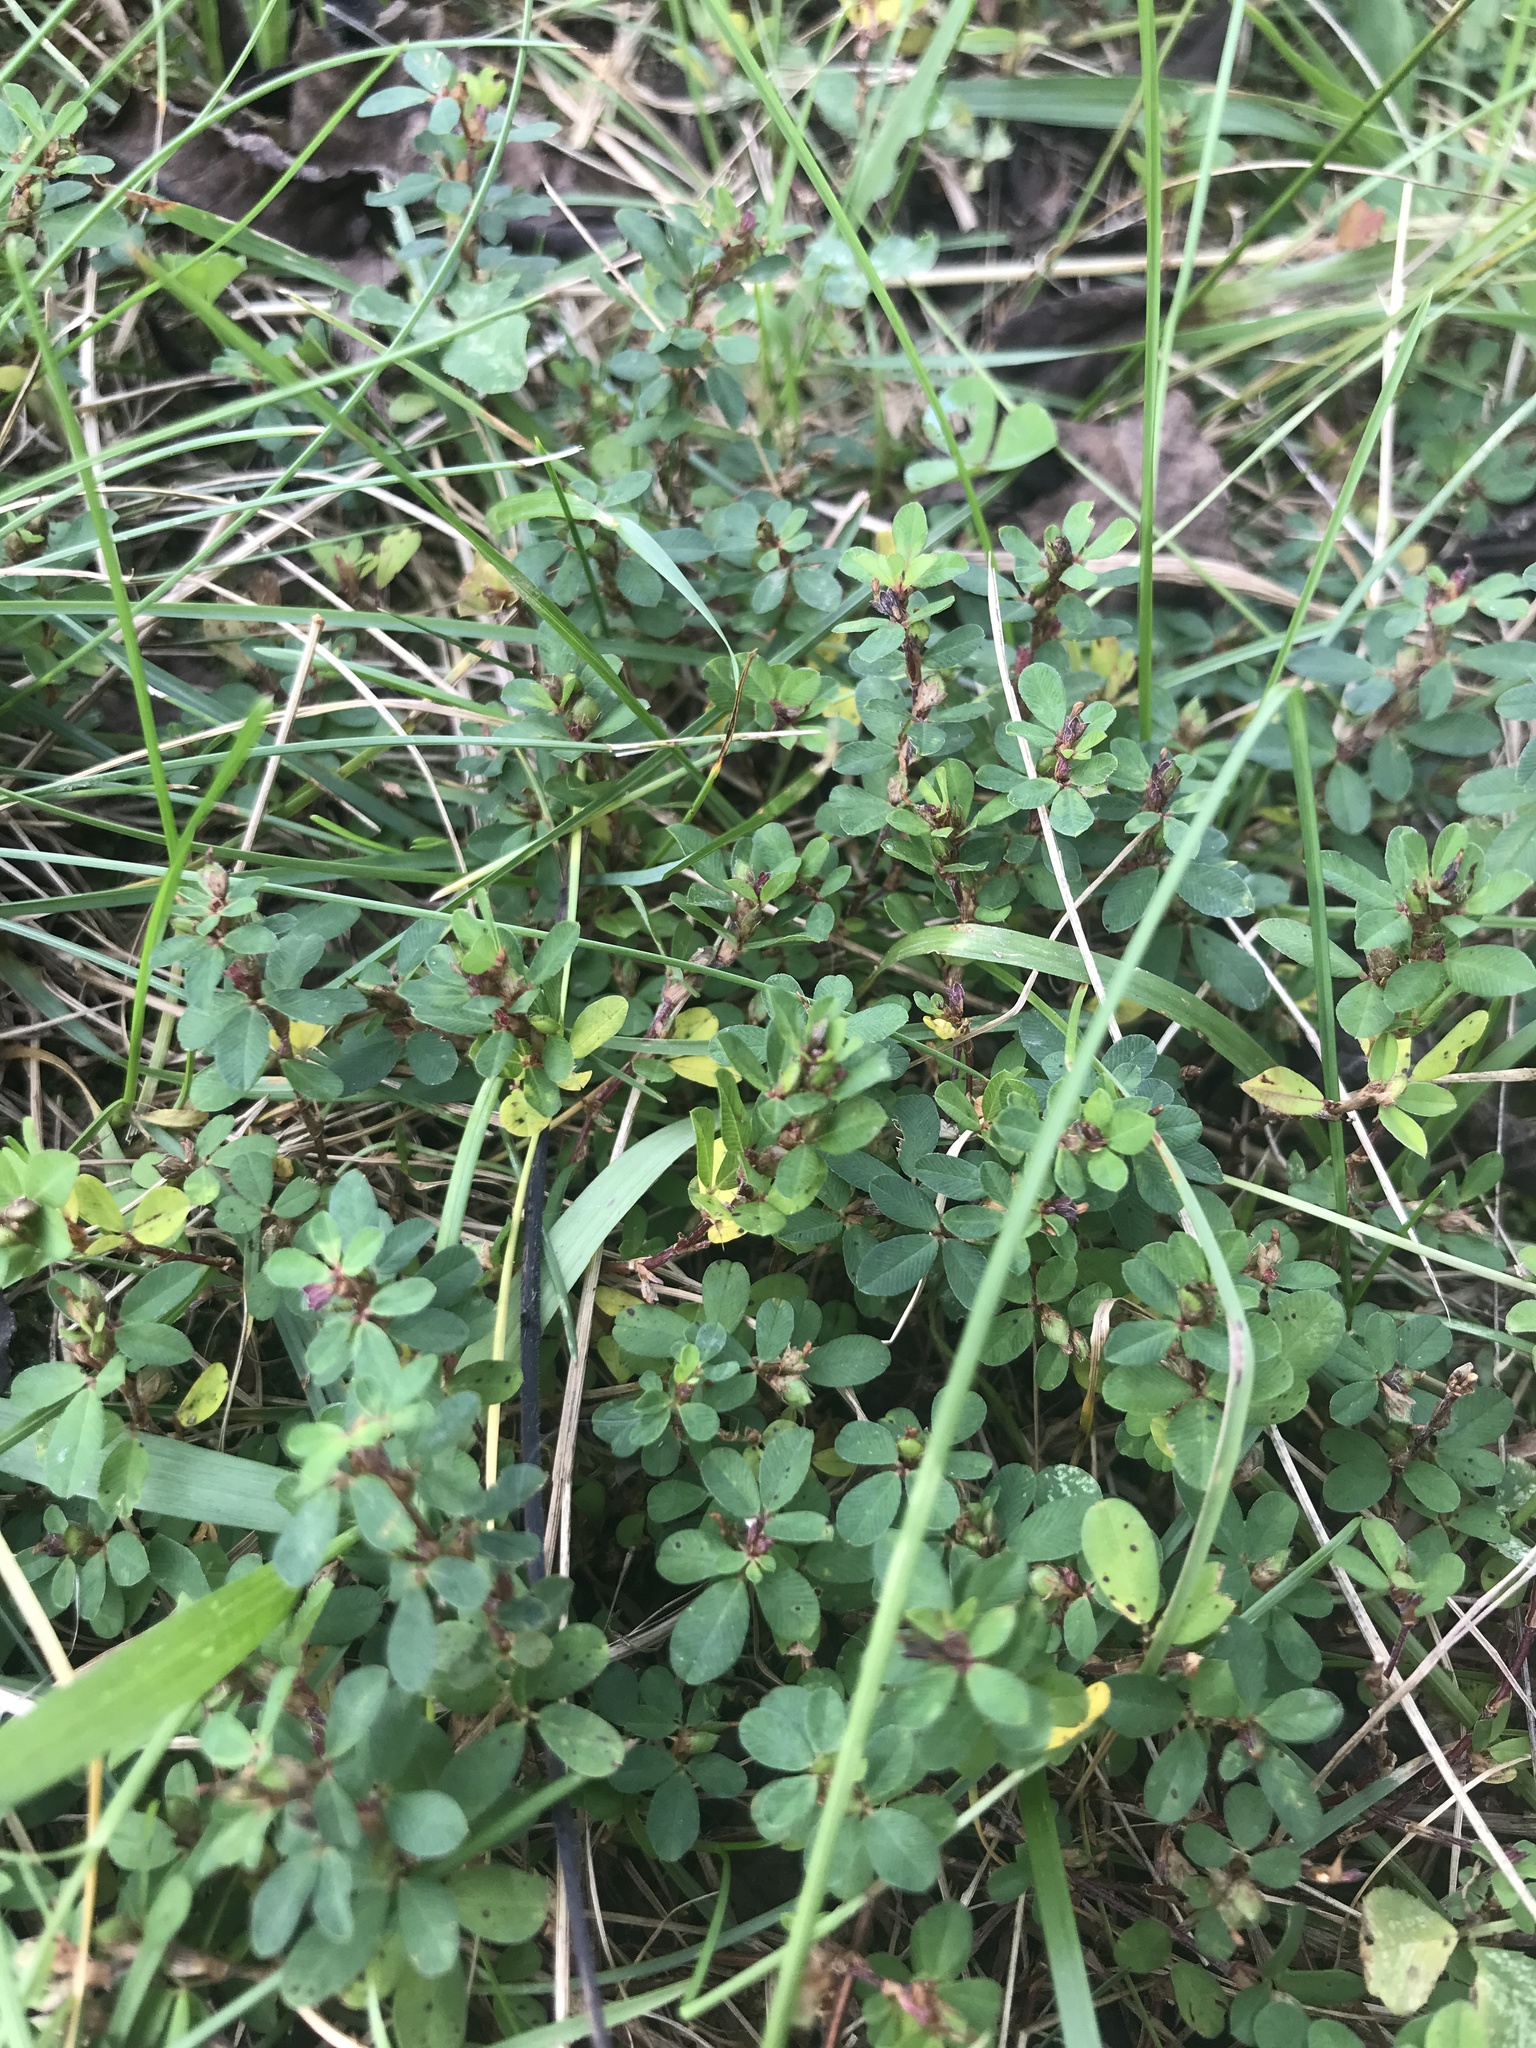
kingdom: Plantae
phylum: Tracheophyta
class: Magnoliopsida
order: Fabales
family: Fabaceae
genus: Kummerowia
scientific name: Kummerowia striata
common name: Japanese clover
